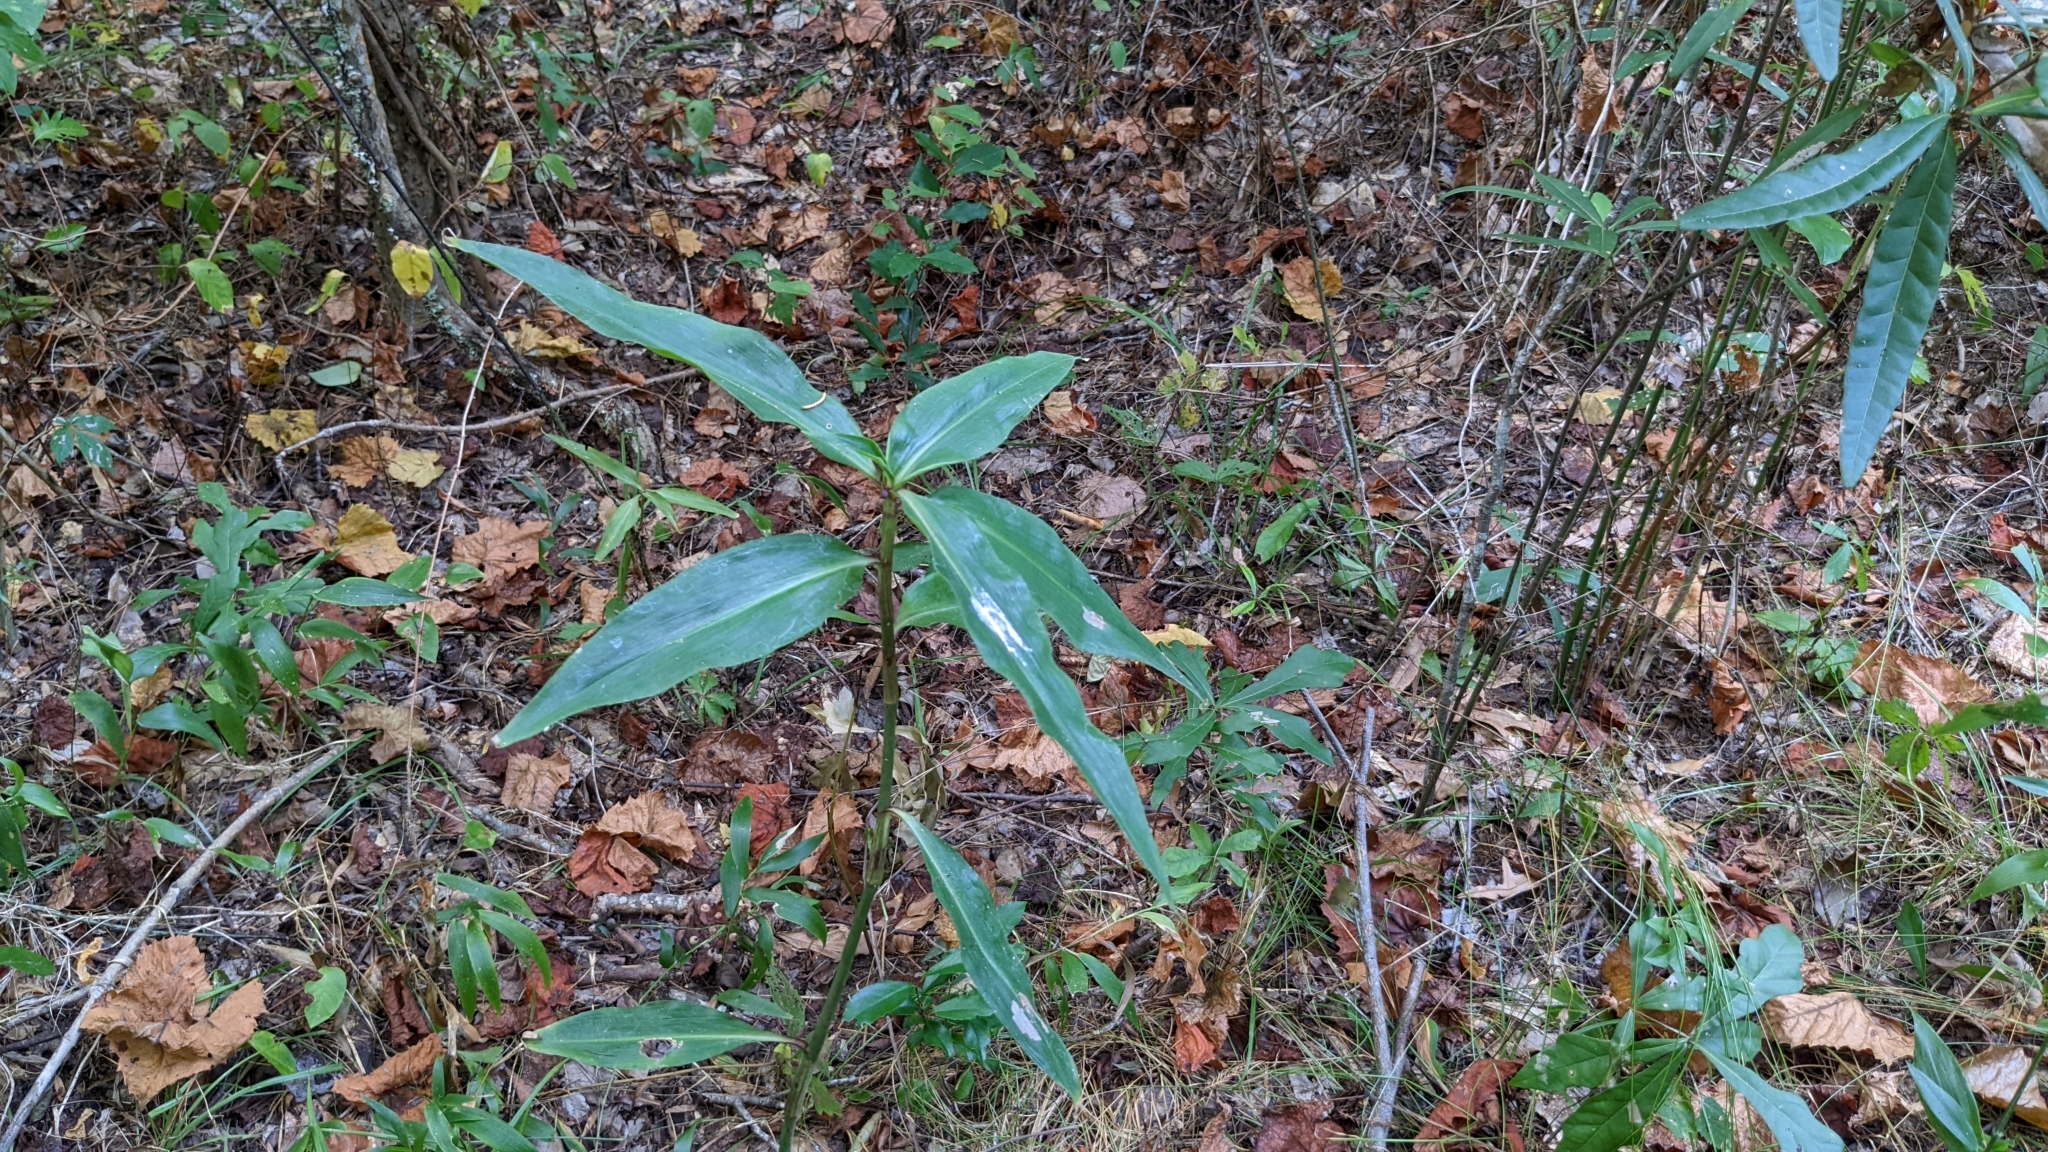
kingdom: Plantae
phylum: Tracheophyta
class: Liliopsida
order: Commelinales
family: Commelinaceae
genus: Commelina
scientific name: Commelina virginica
